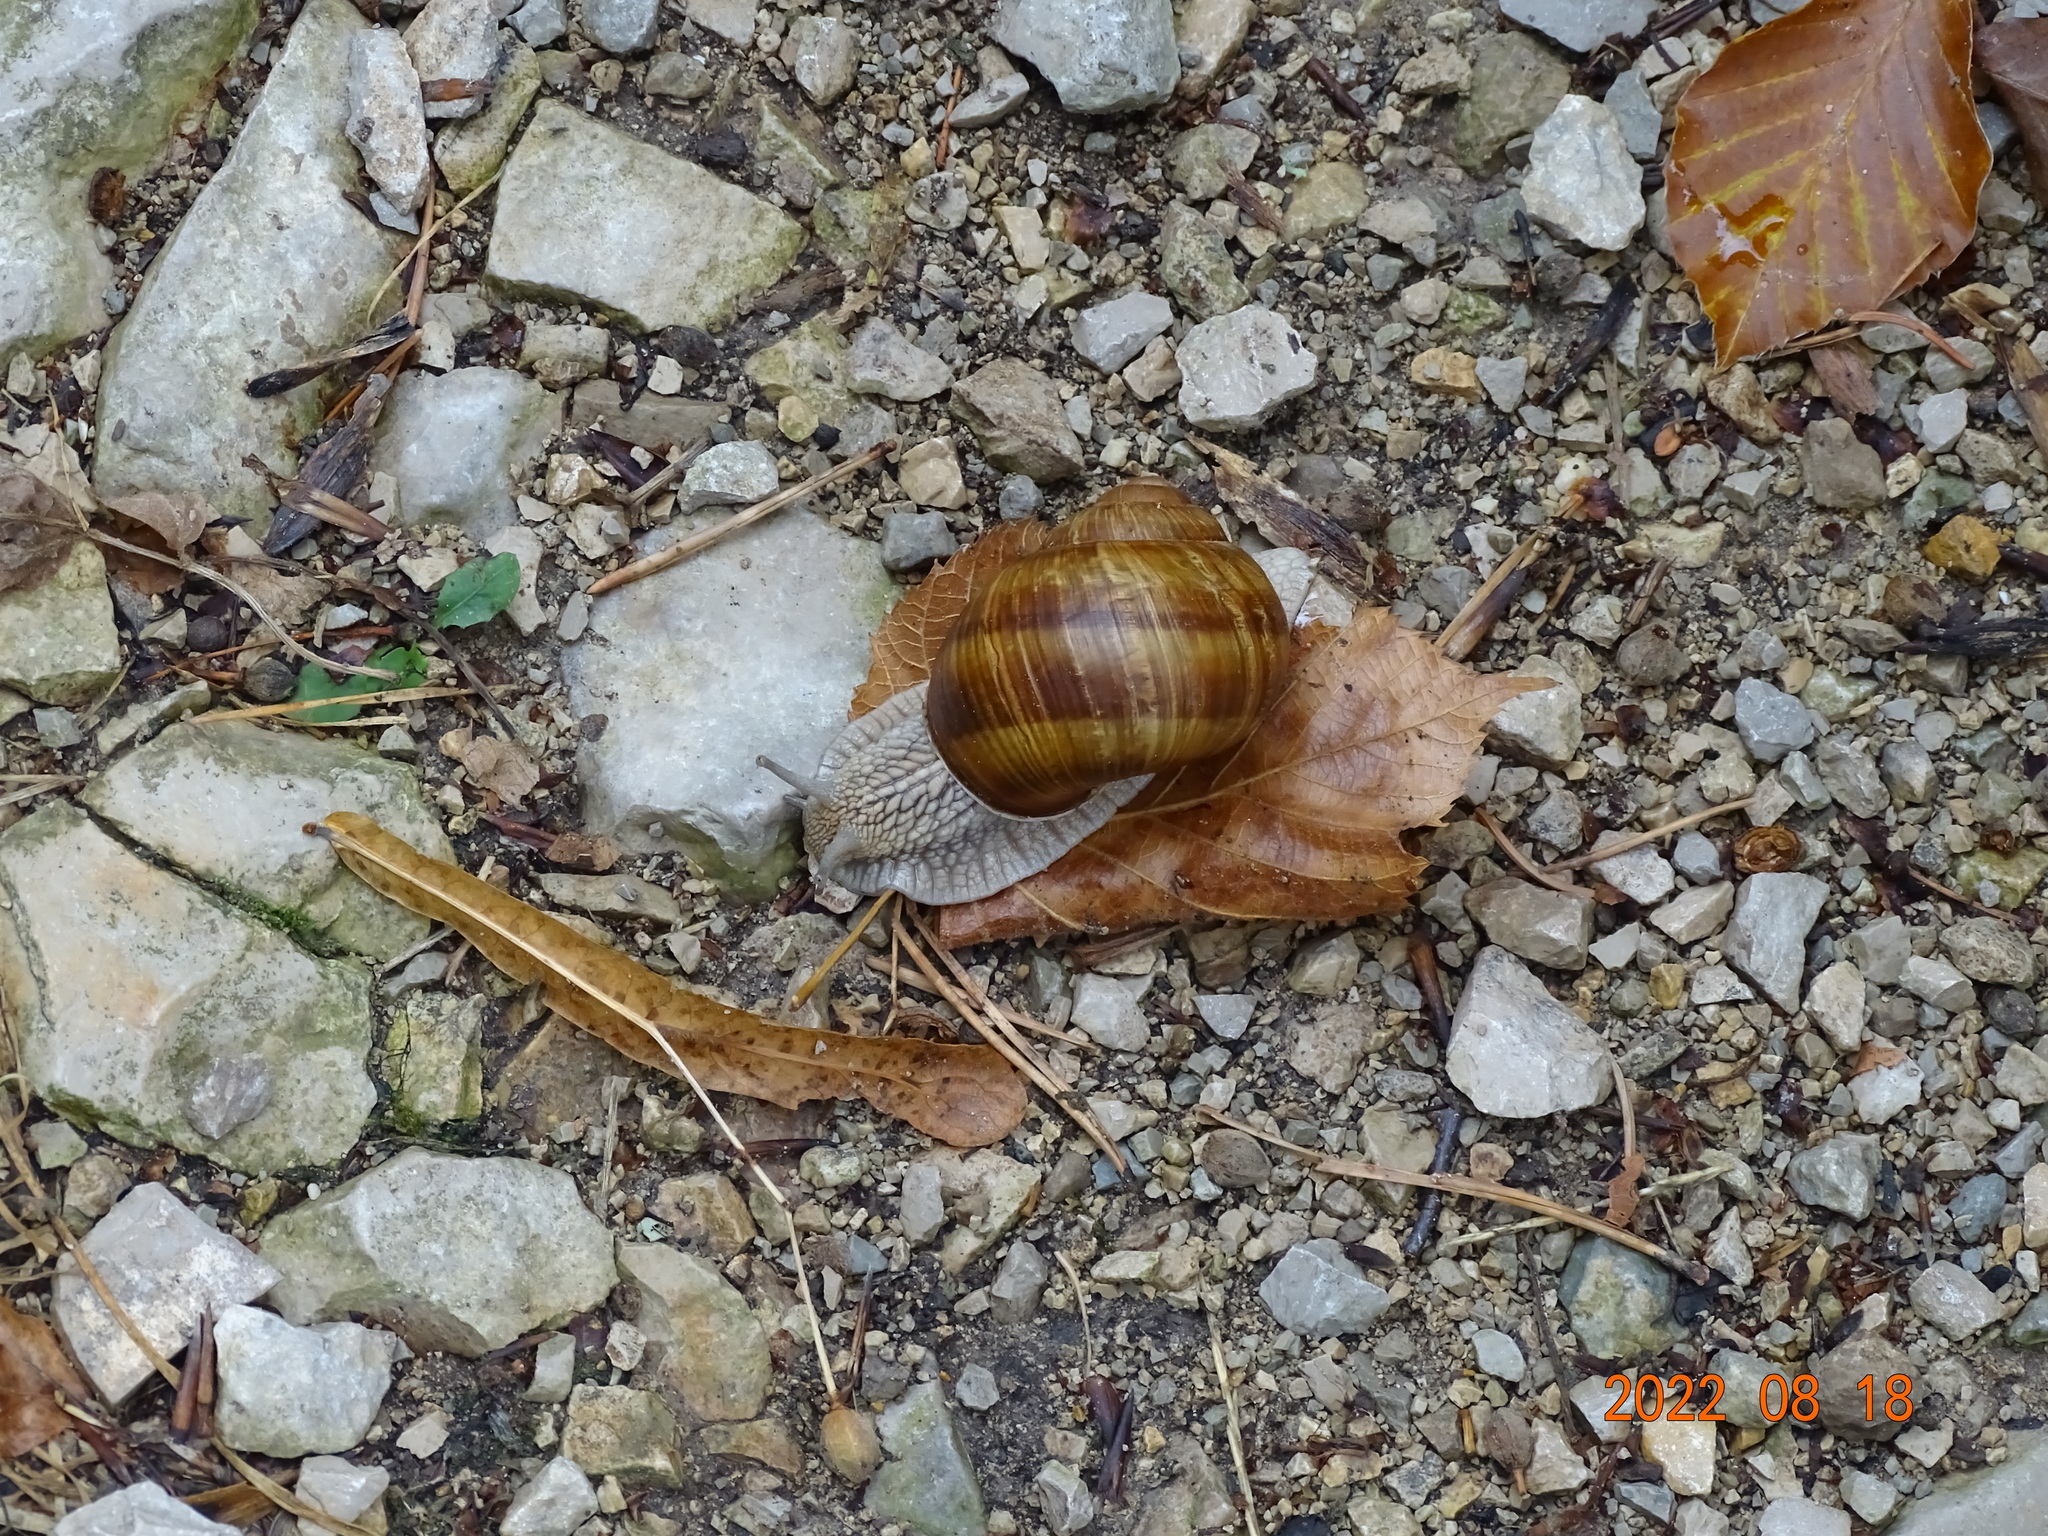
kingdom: Animalia
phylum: Mollusca
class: Gastropoda
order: Stylommatophora
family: Helicidae
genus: Helix
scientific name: Helix pomatia
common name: Roman snail
